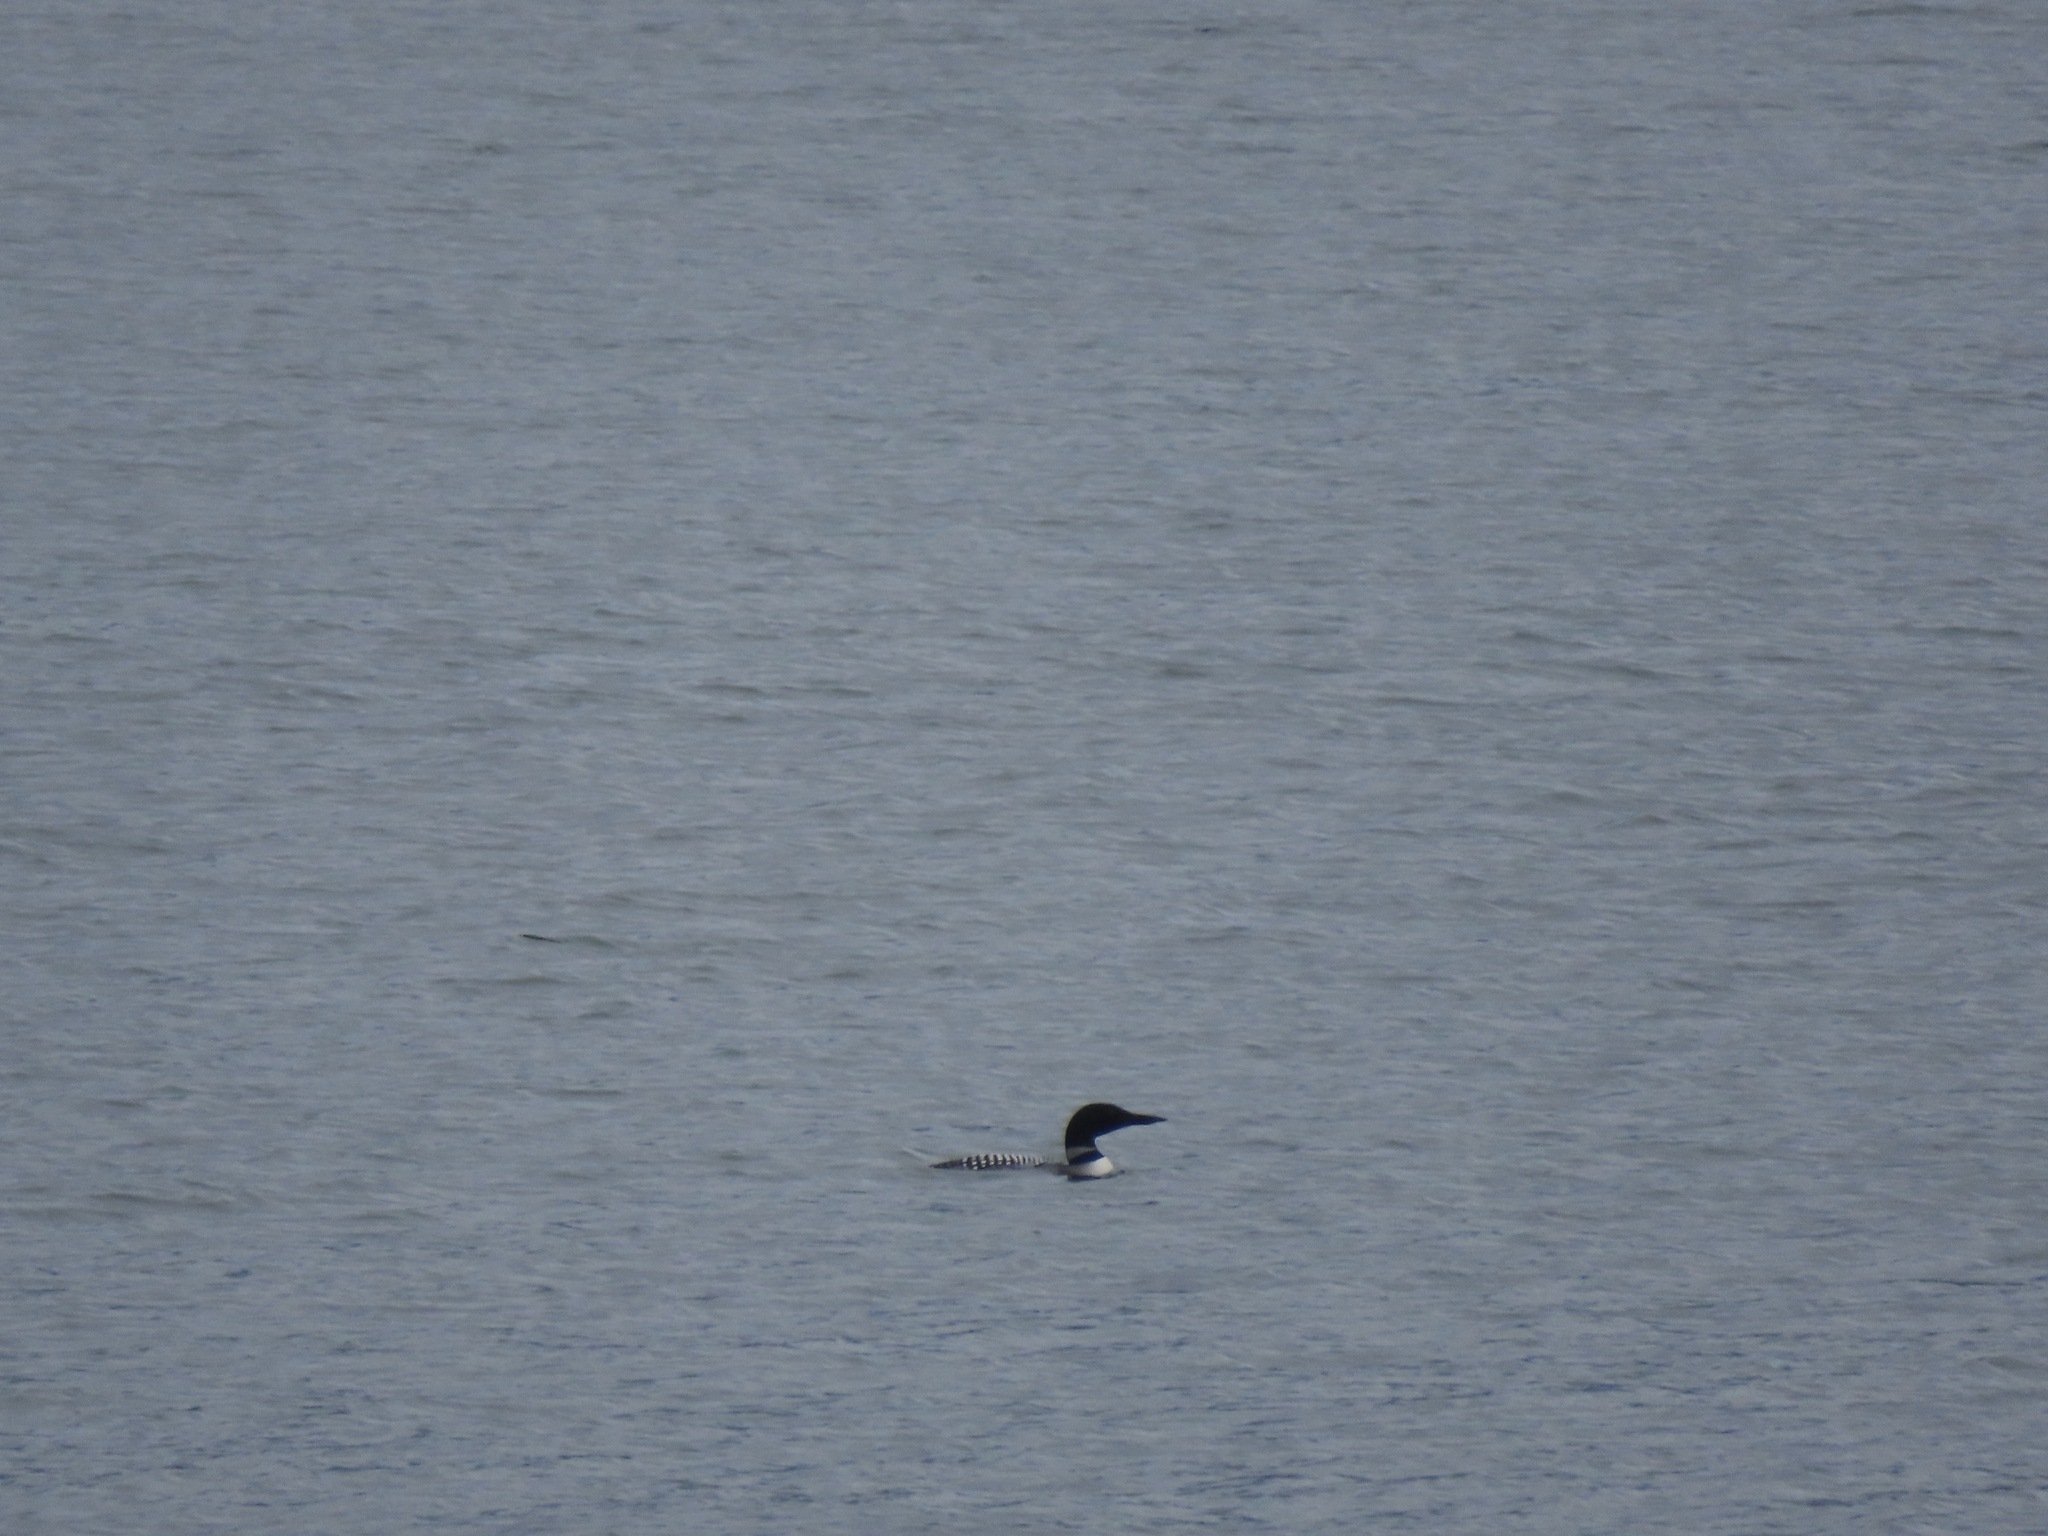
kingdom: Animalia
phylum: Chordata
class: Aves
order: Gaviiformes
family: Gaviidae
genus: Gavia
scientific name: Gavia immer
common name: Common loon
